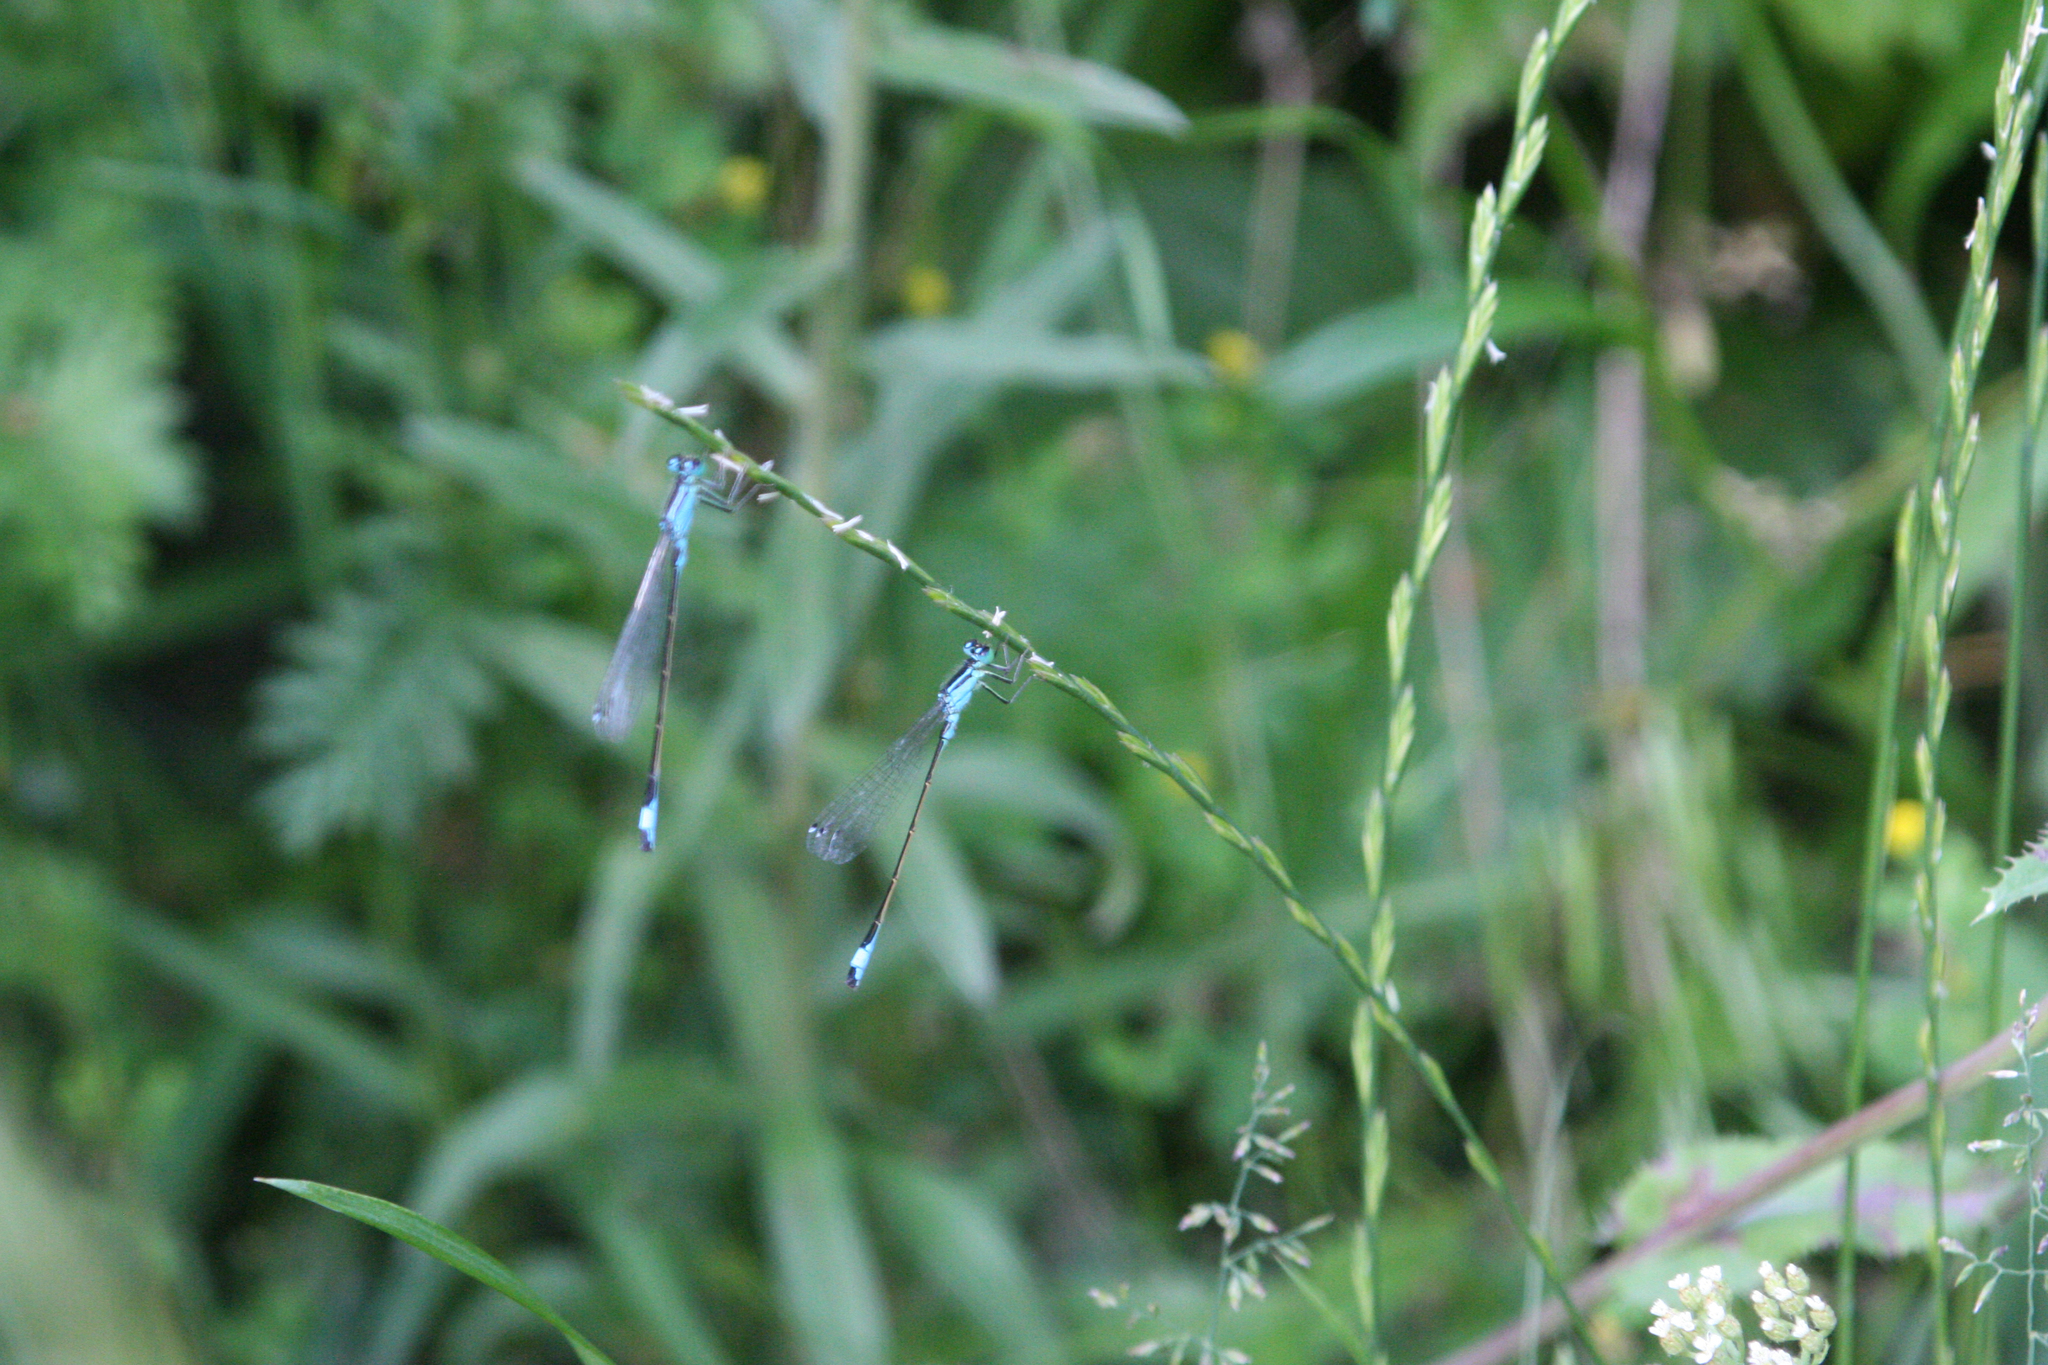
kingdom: Animalia
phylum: Arthropoda
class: Insecta
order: Odonata
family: Coenagrionidae
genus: Ischnura
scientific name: Ischnura elegans
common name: Blue-tailed damselfly
